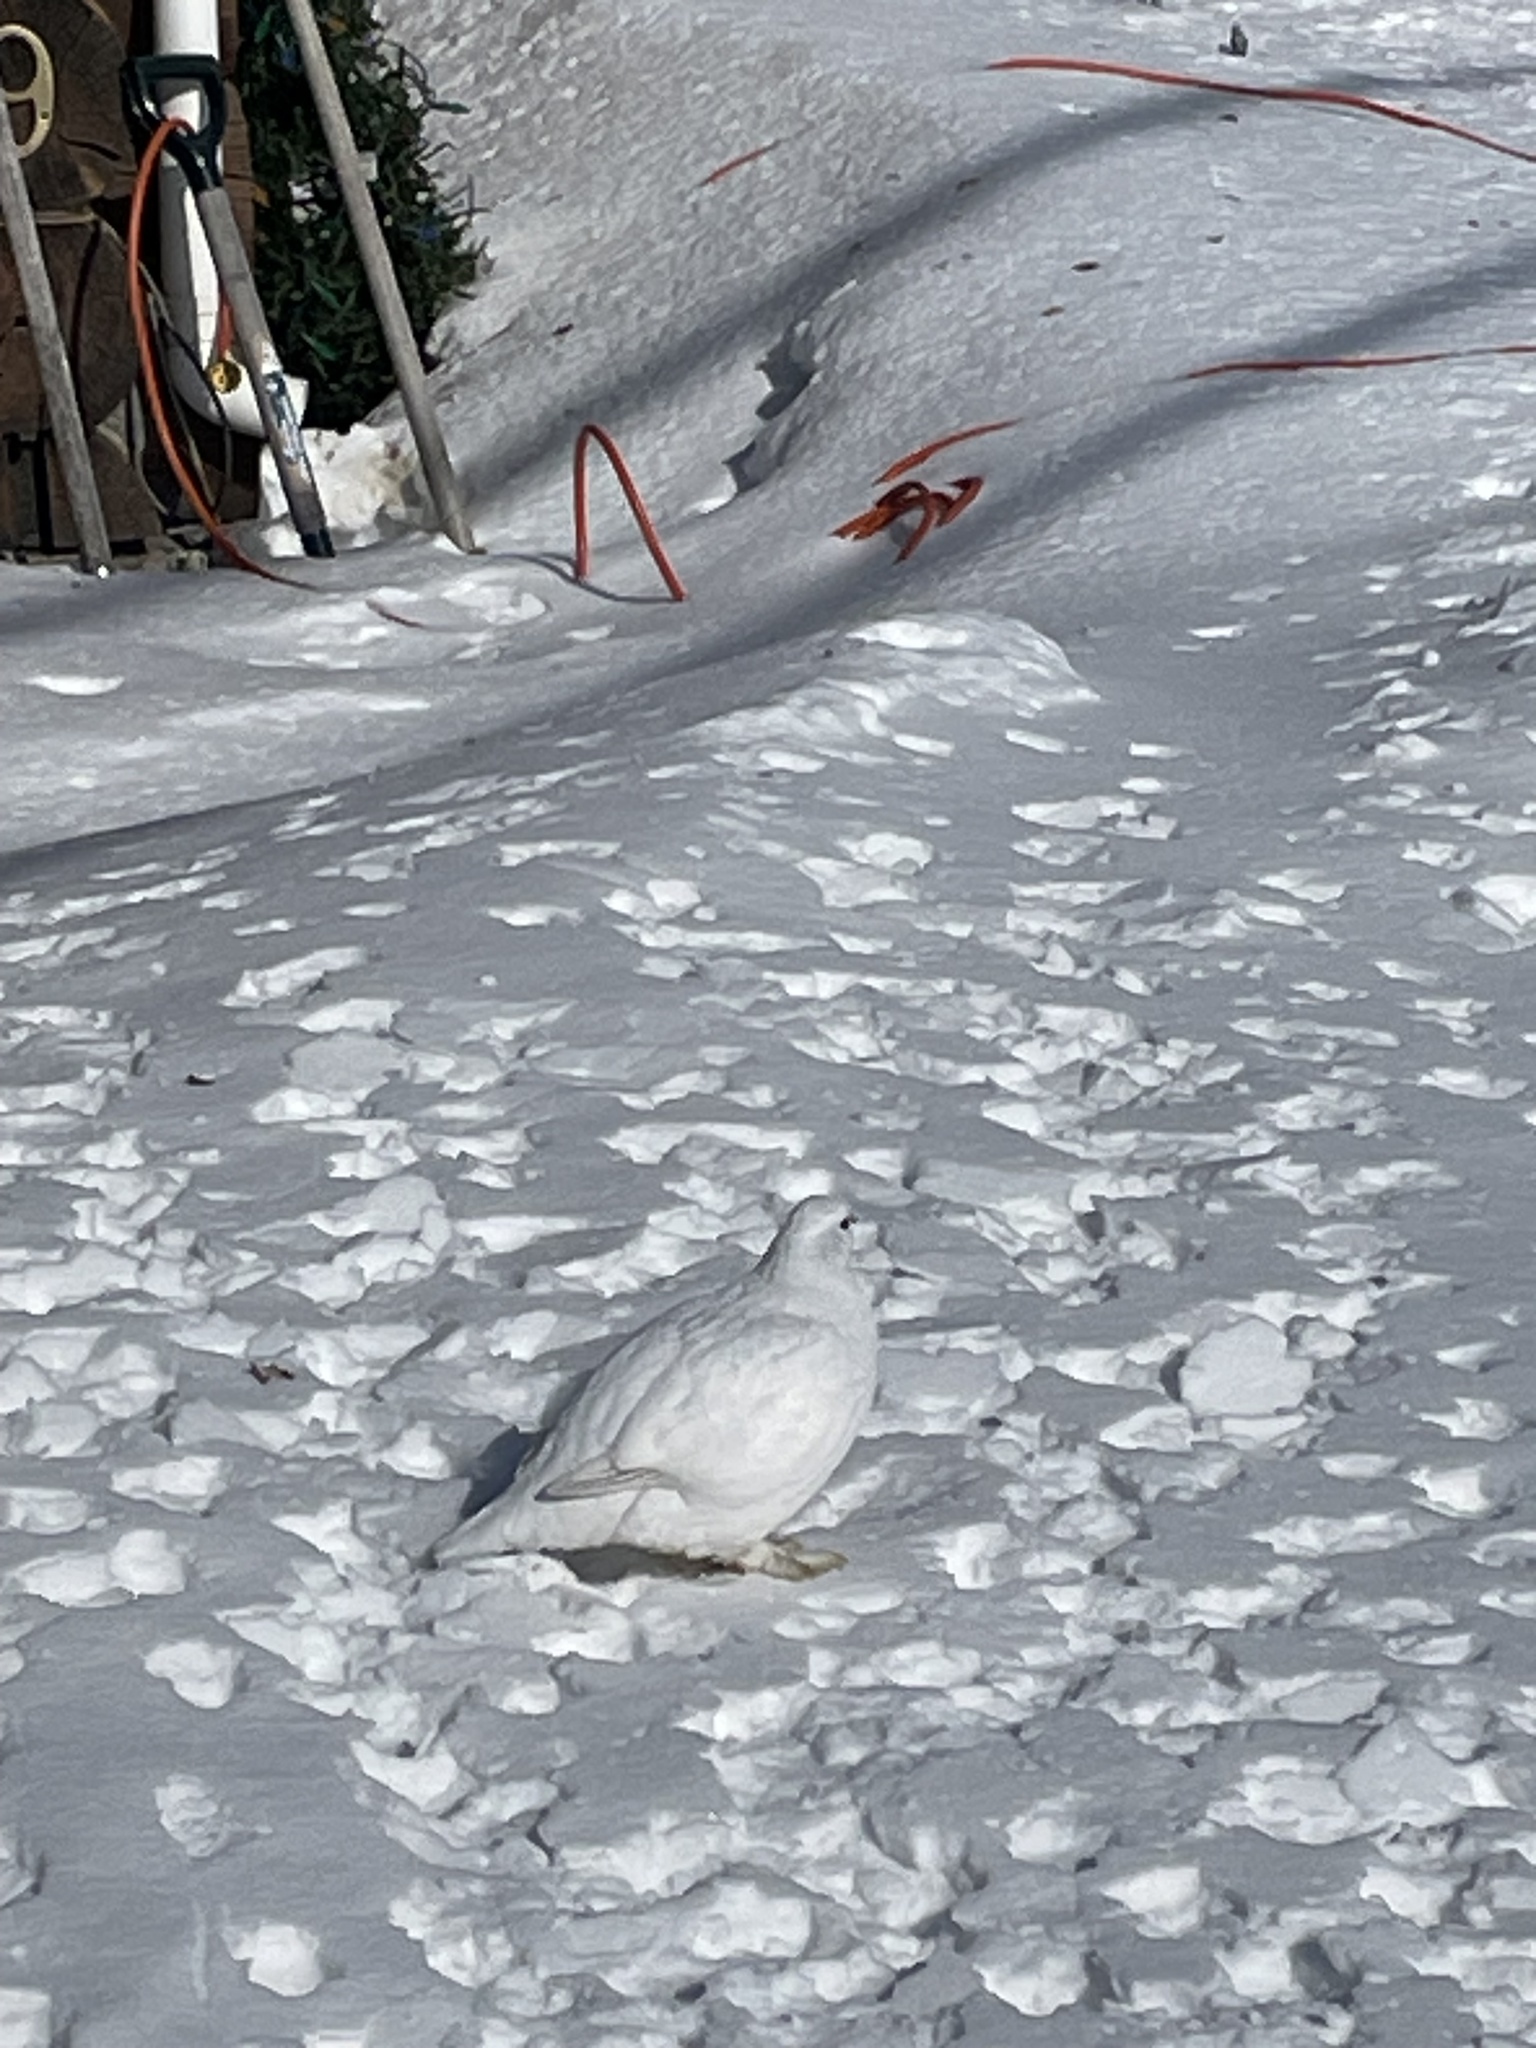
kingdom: Animalia
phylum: Chordata
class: Aves
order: Galliformes
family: Phasianidae
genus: Lagopus
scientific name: Lagopus lagopus
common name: Willow ptarmigan
